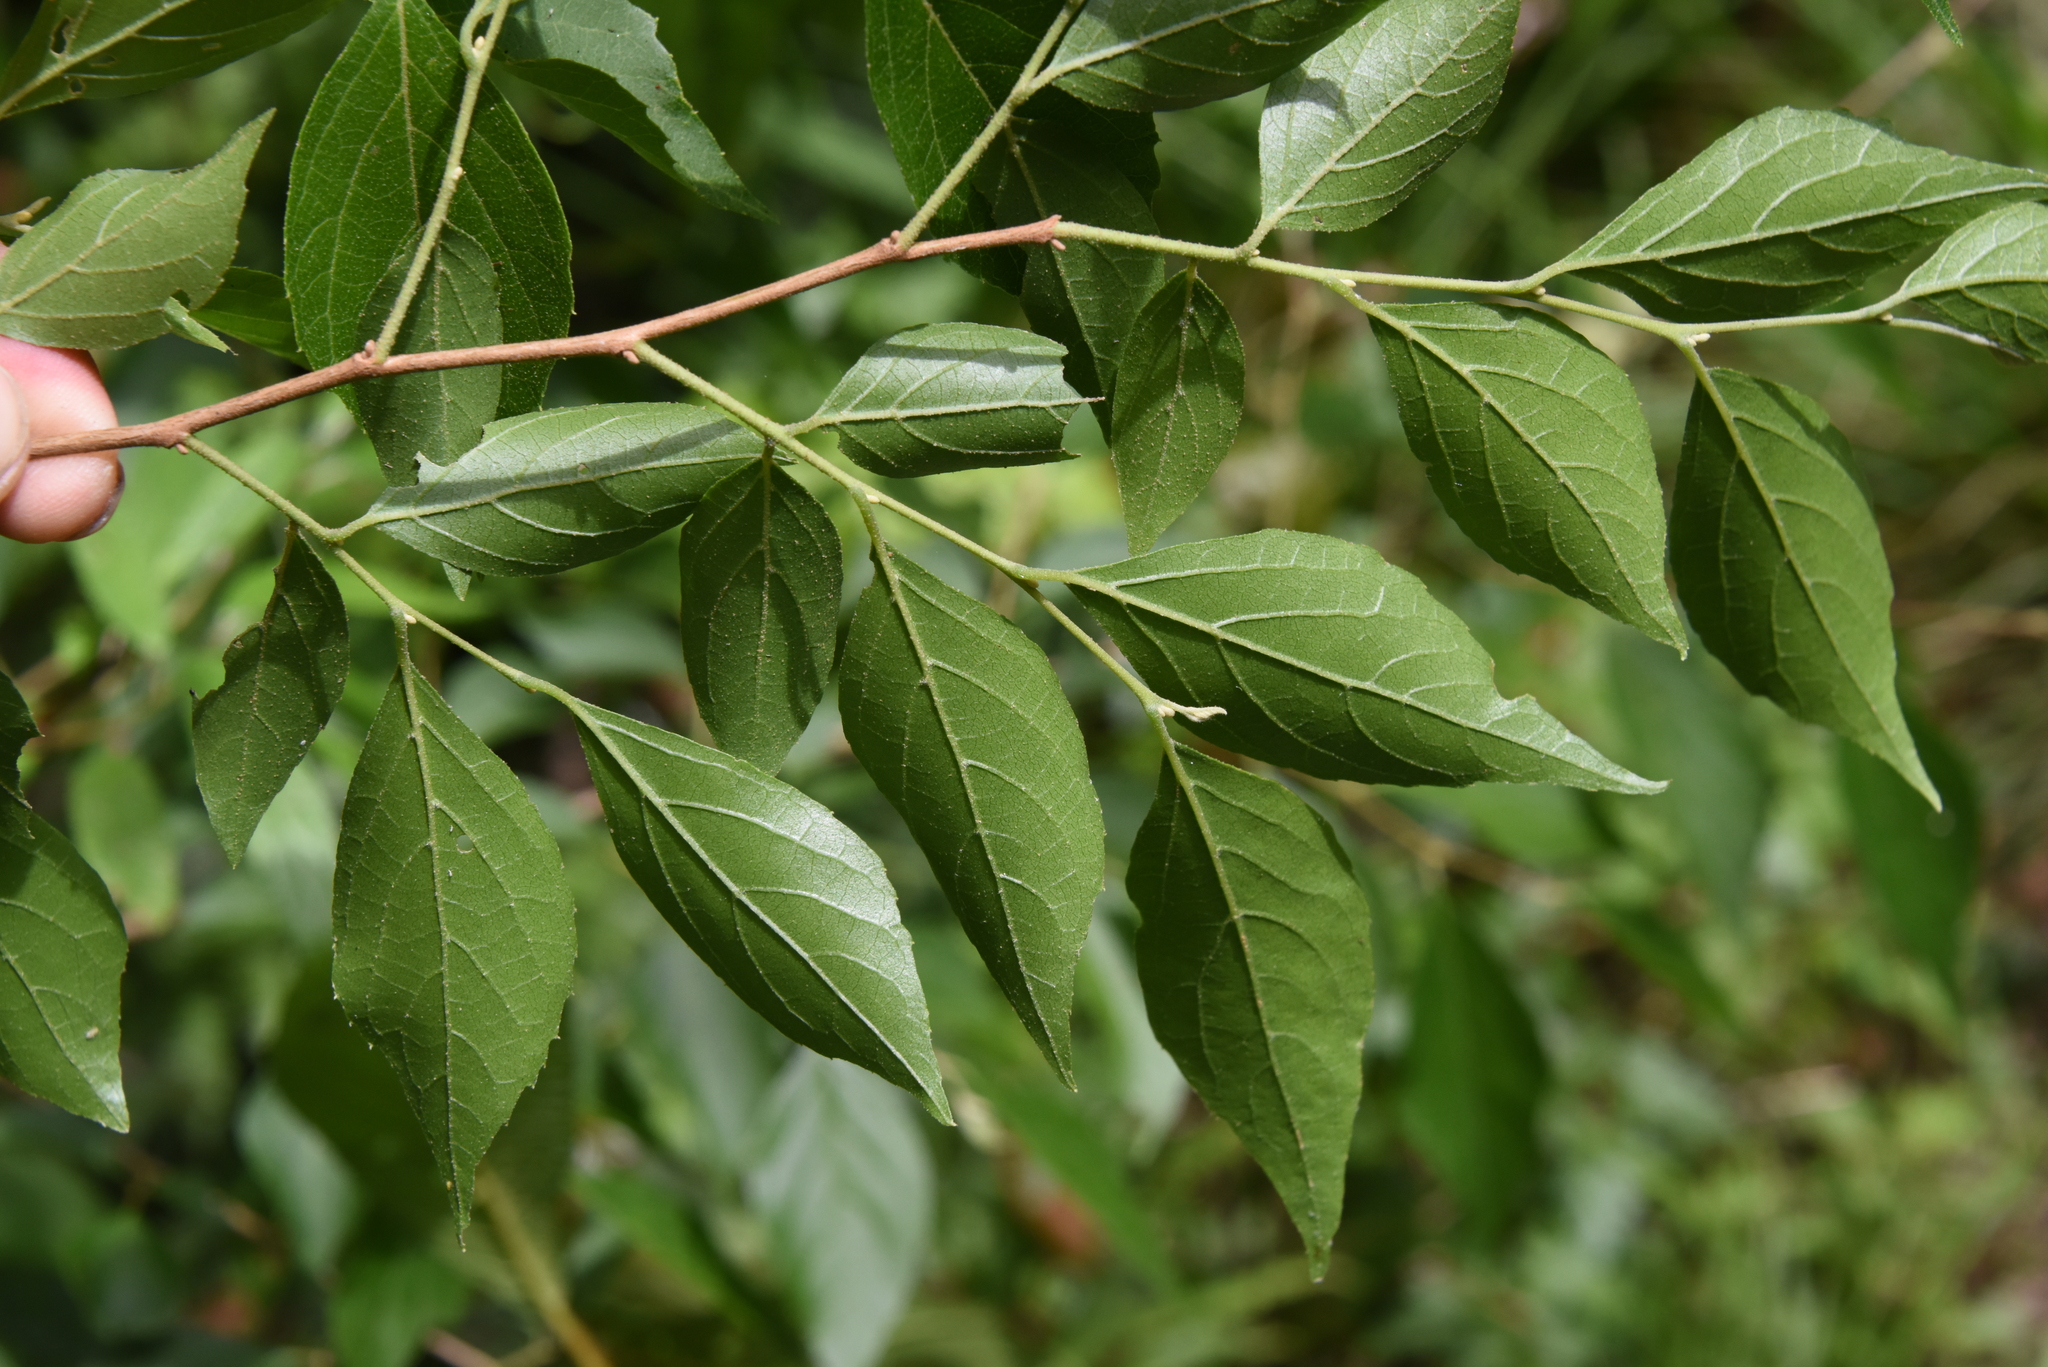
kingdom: Plantae
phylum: Tracheophyta
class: Magnoliopsida
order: Ericales
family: Styracaceae
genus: Styrax
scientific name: Styrax formosanus
